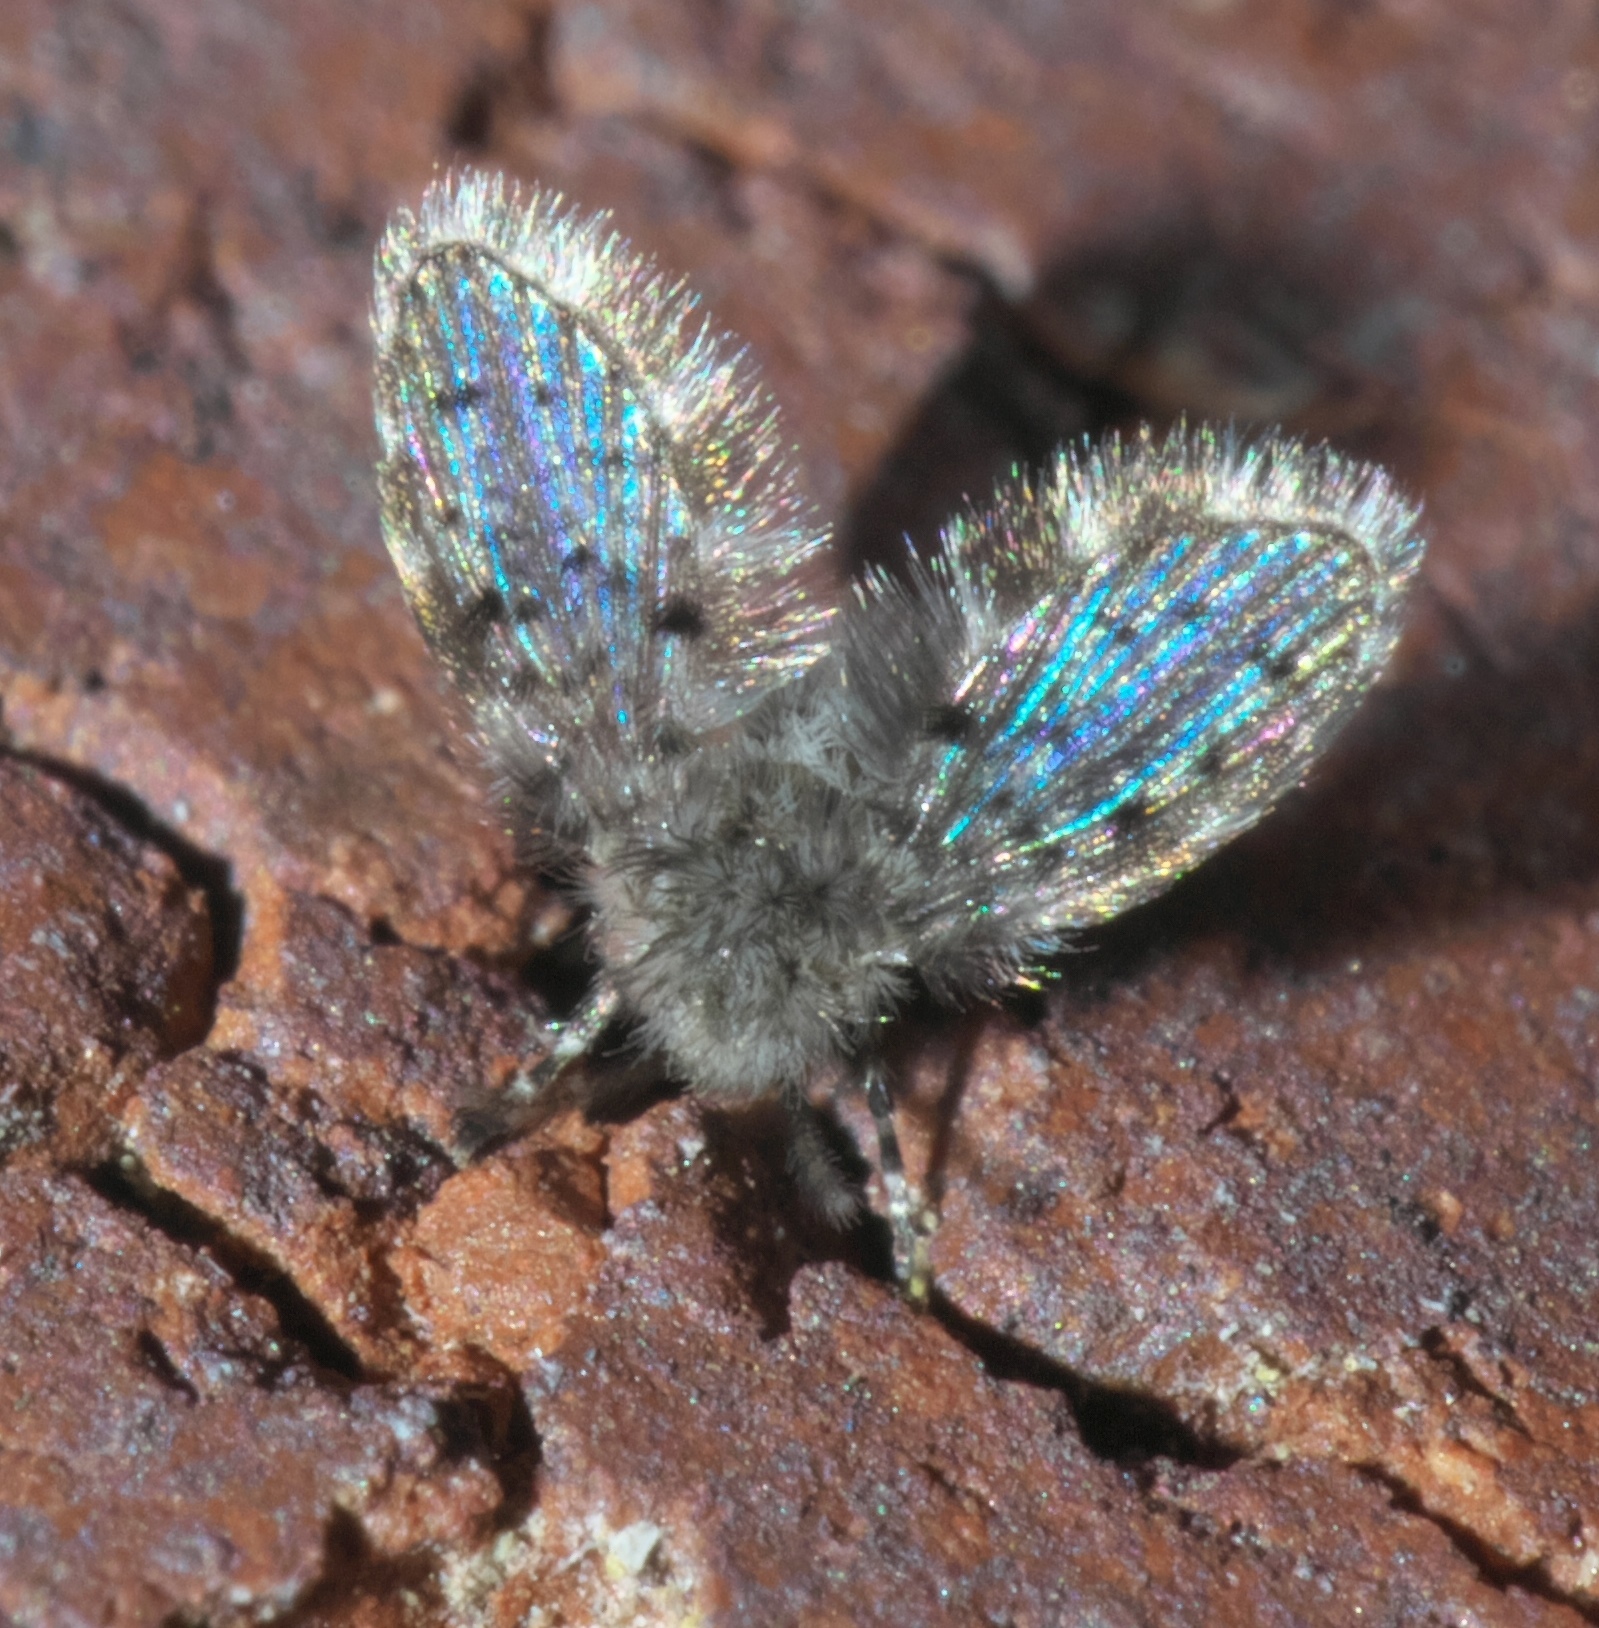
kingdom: Animalia
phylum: Arthropoda
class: Insecta
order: Diptera
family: Psychodidae
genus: Telmatoscopus
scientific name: Telmatoscopus furcatus
